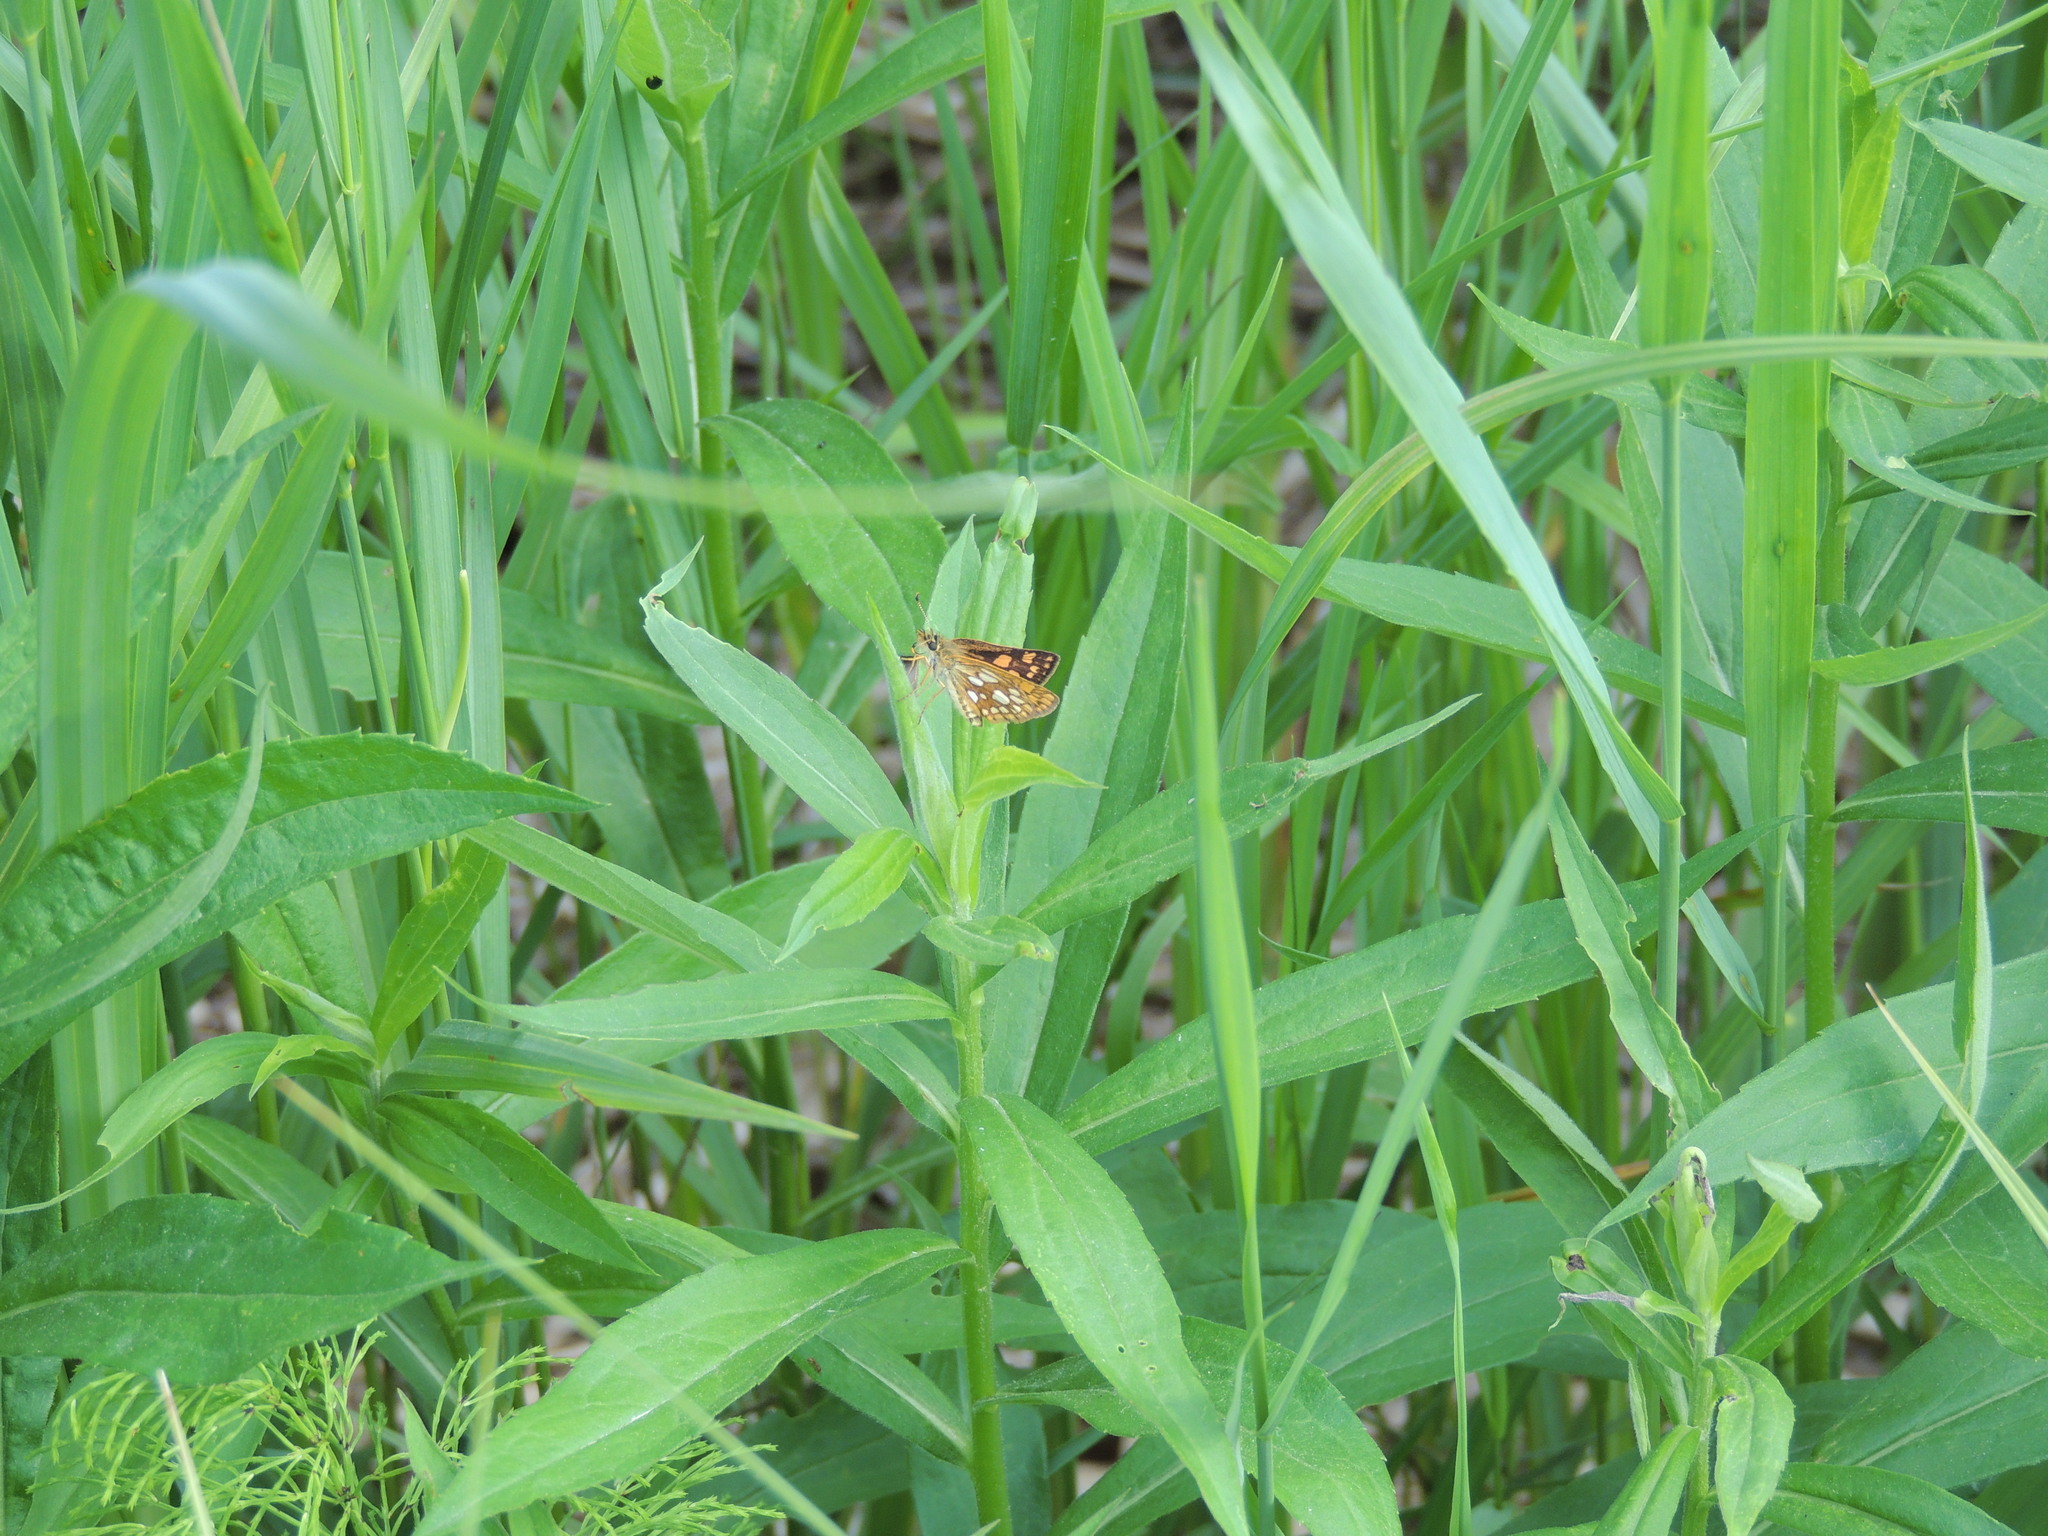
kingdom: Animalia
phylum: Arthropoda
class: Insecta
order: Lepidoptera
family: Hesperiidae
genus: Carterocephalus
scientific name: Carterocephalus mandan
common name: Arctic skipperling
